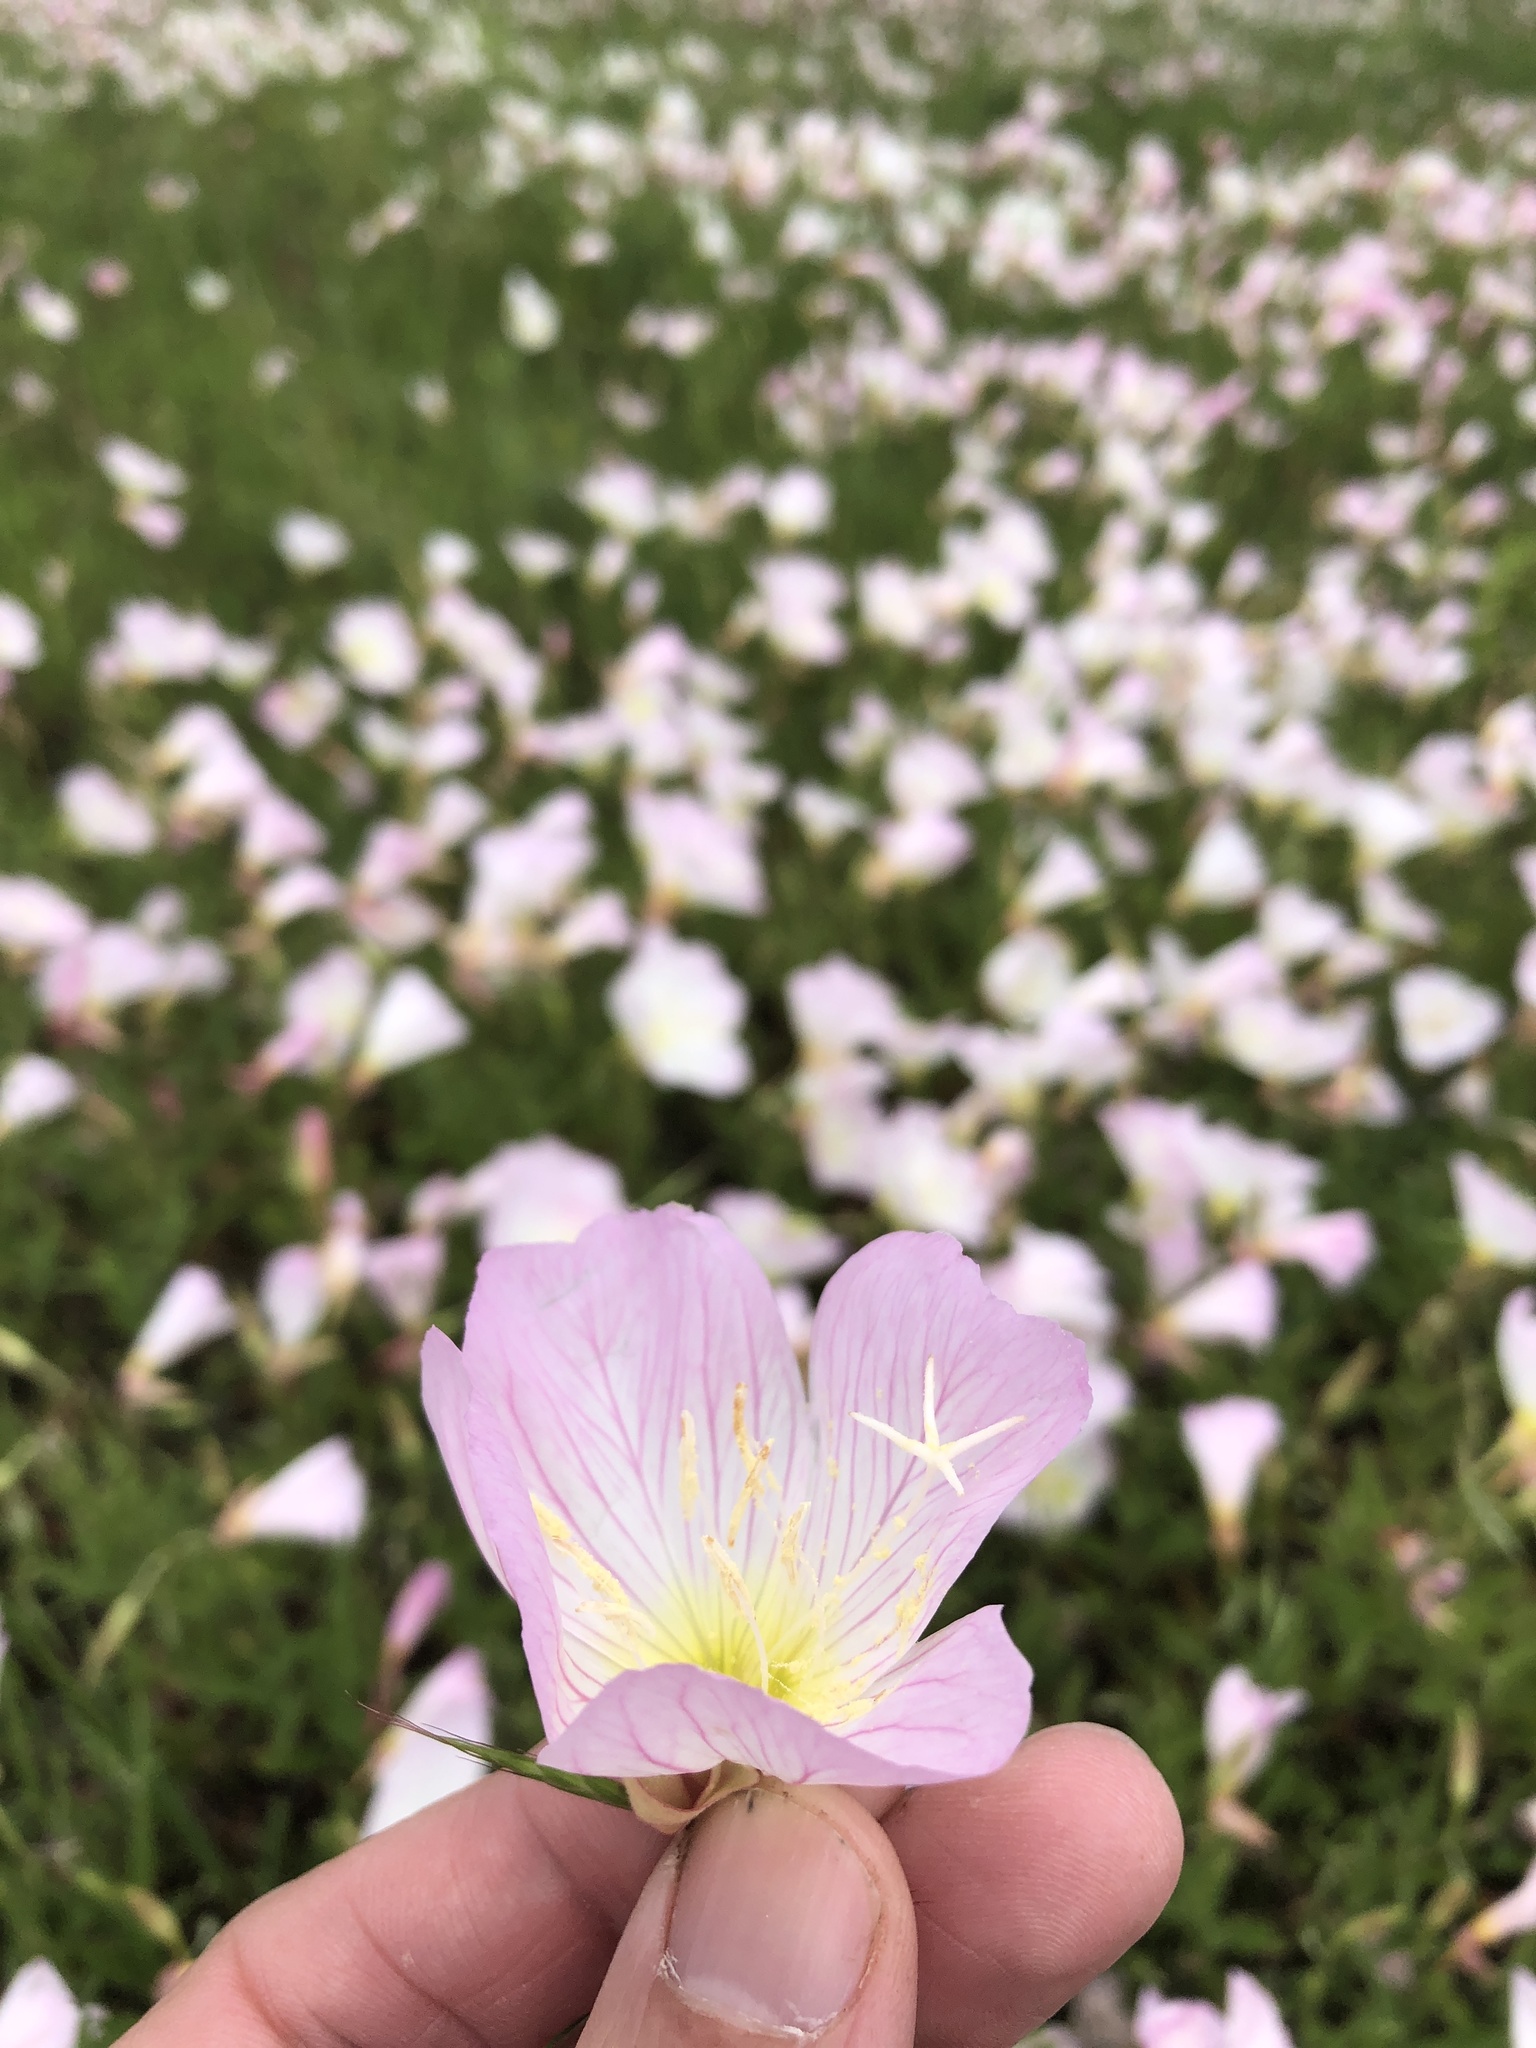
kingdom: Plantae
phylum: Tracheophyta
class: Magnoliopsida
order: Myrtales
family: Onagraceae
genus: Oenothera
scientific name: Oenothera speciosa
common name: White evening-primrose
